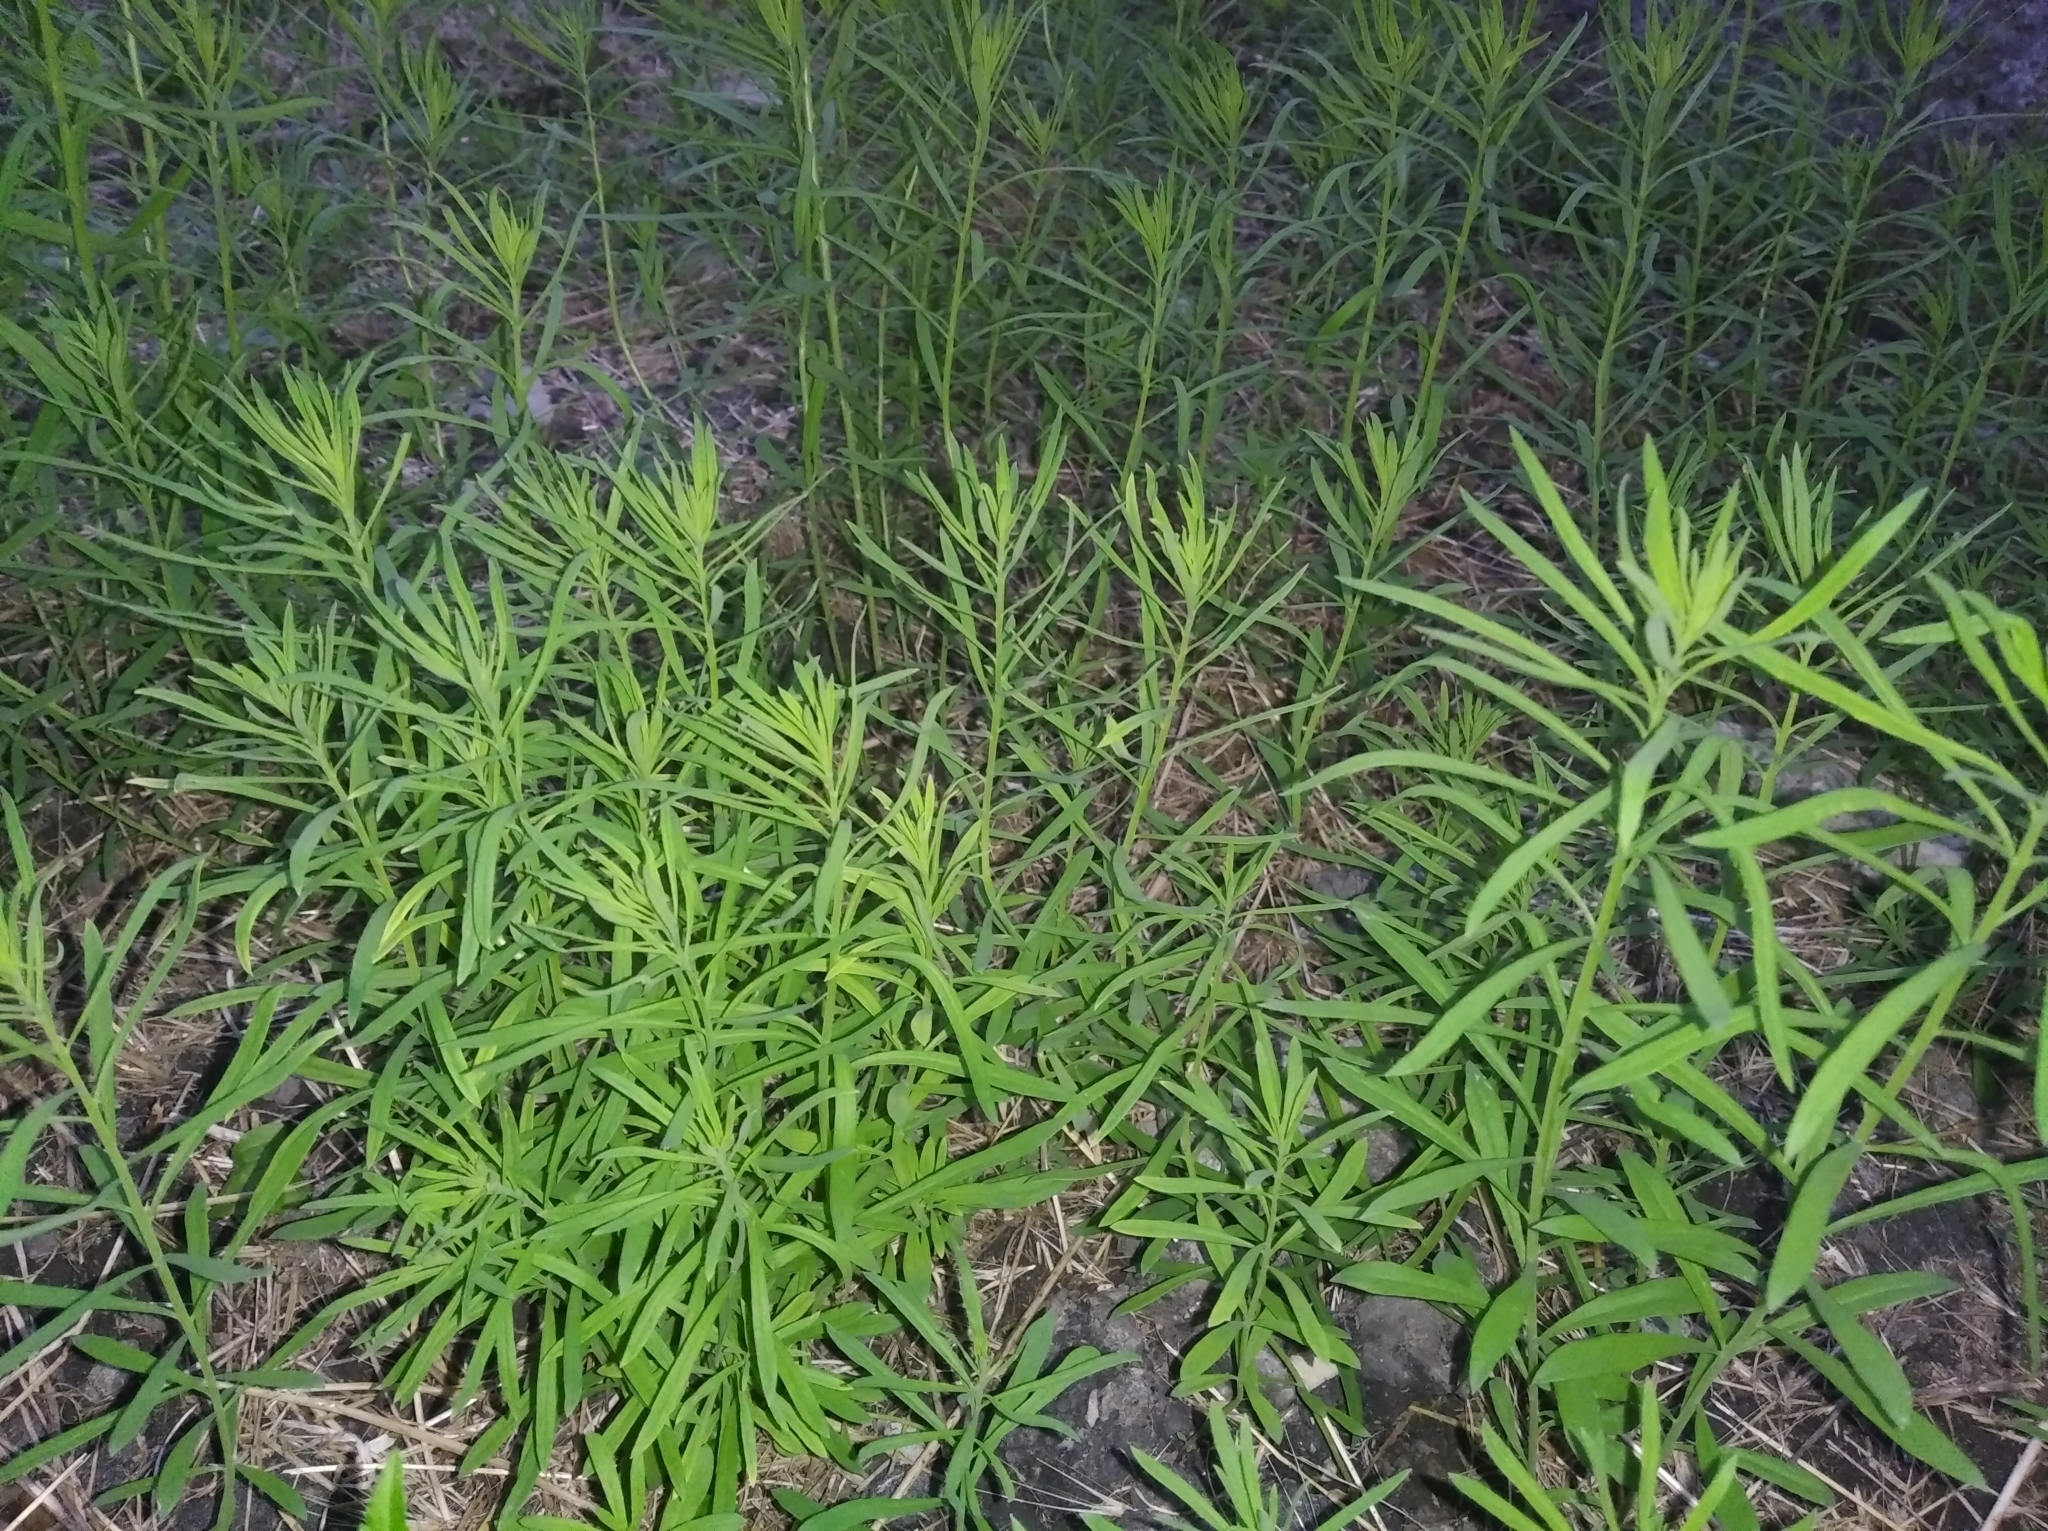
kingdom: Plantae
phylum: Tracheophyta
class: Magnoliopsida
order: Lamiales
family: Plantaginaceae
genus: Linaria
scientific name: Linaria vulgaris
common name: Butter and eggs
